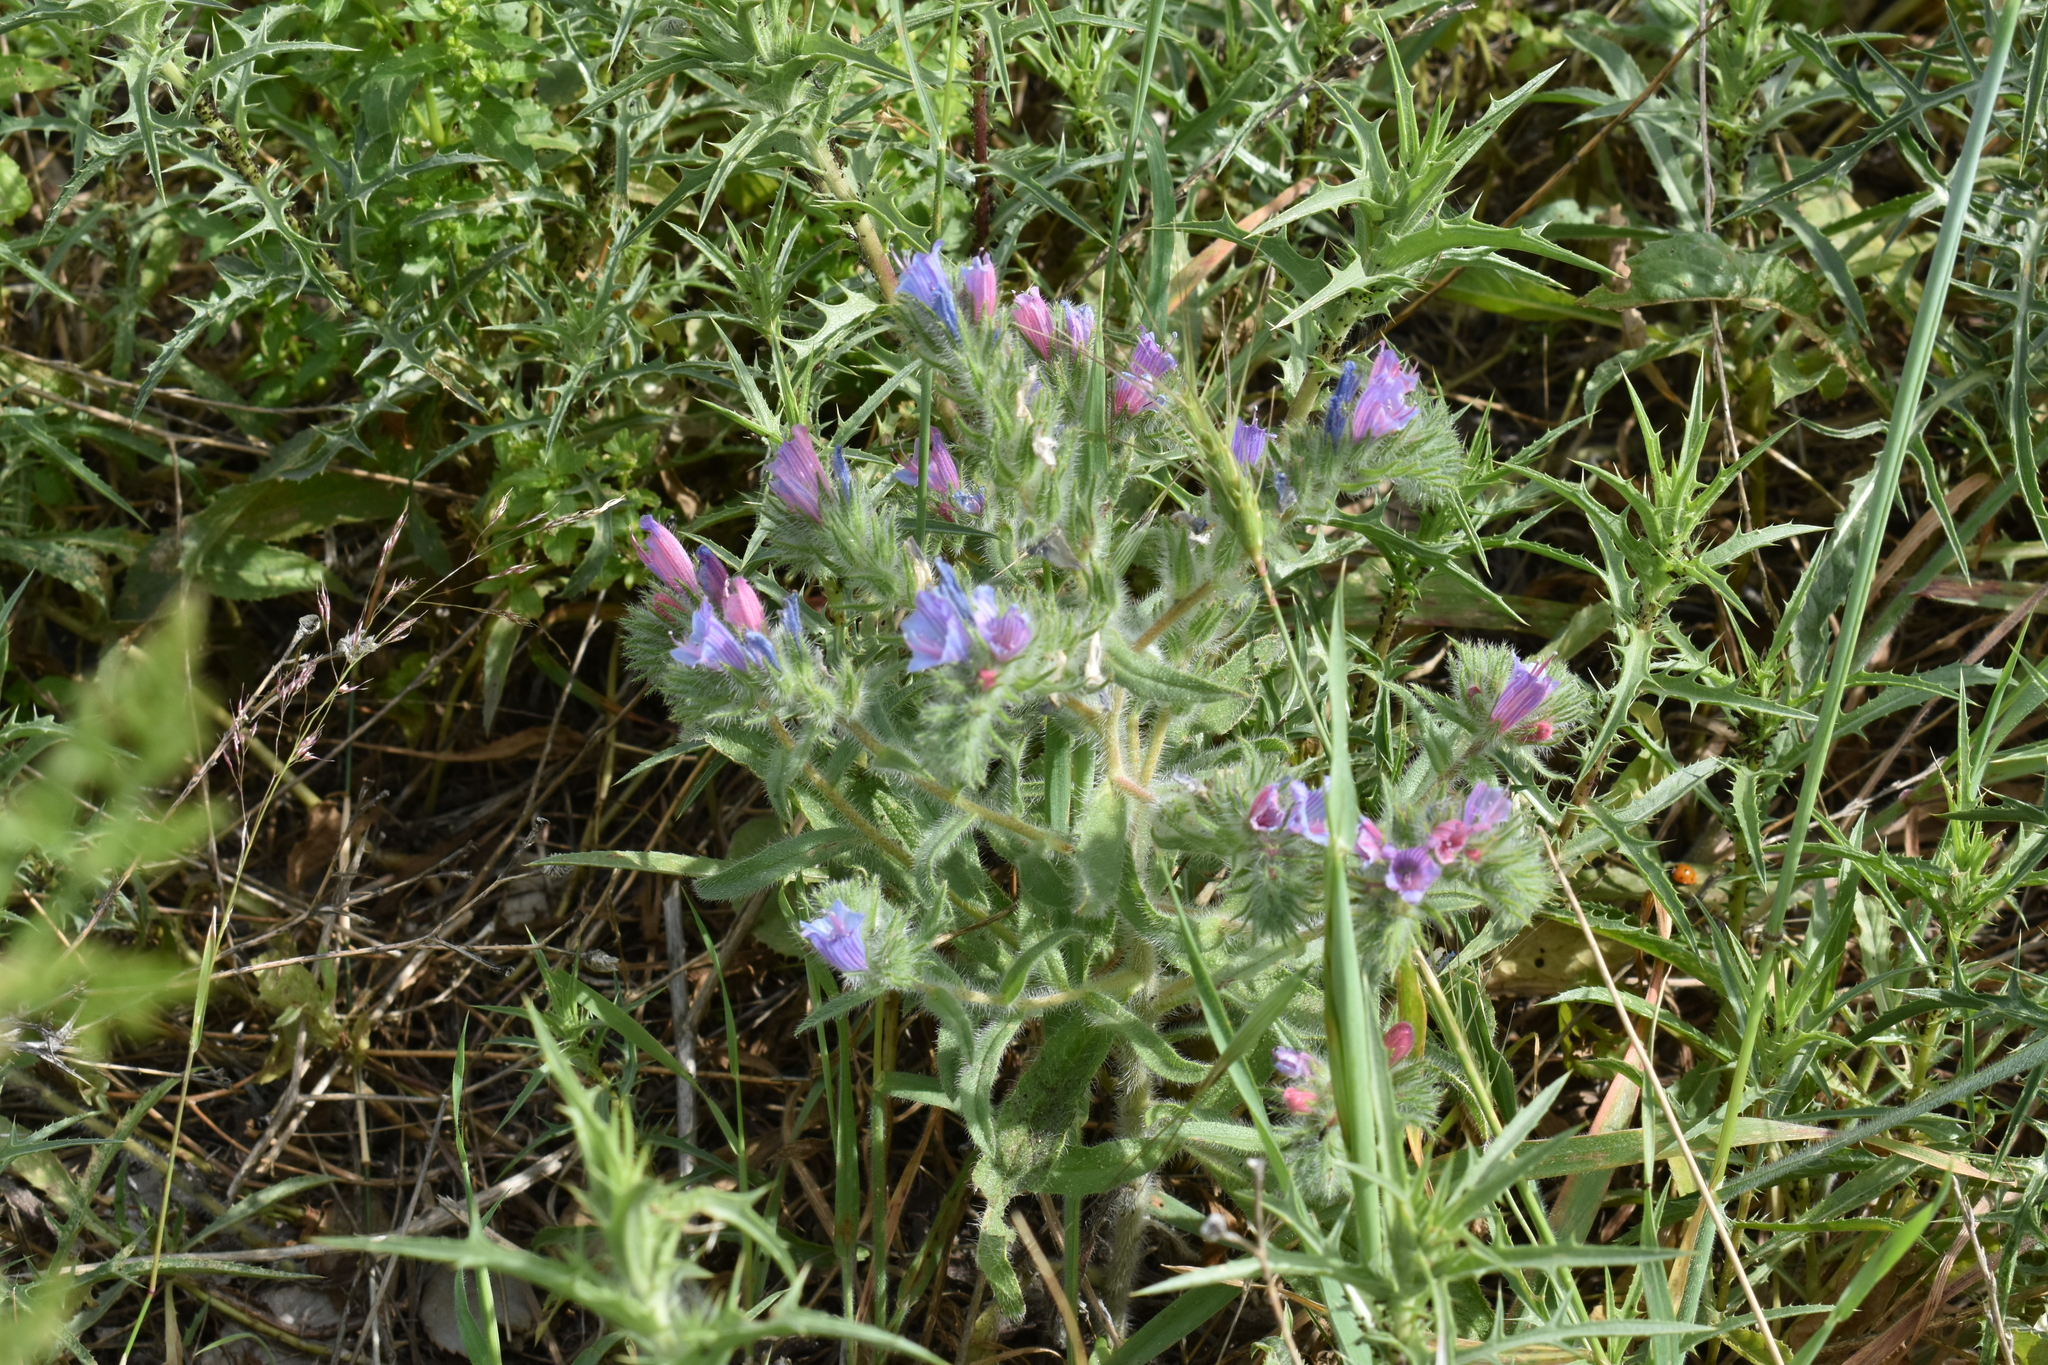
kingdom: Plantae
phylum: Tracheophyta
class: Magnoliopsida
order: Boraginales
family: Boraginaceae
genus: Echium
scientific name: Echium judaeum
